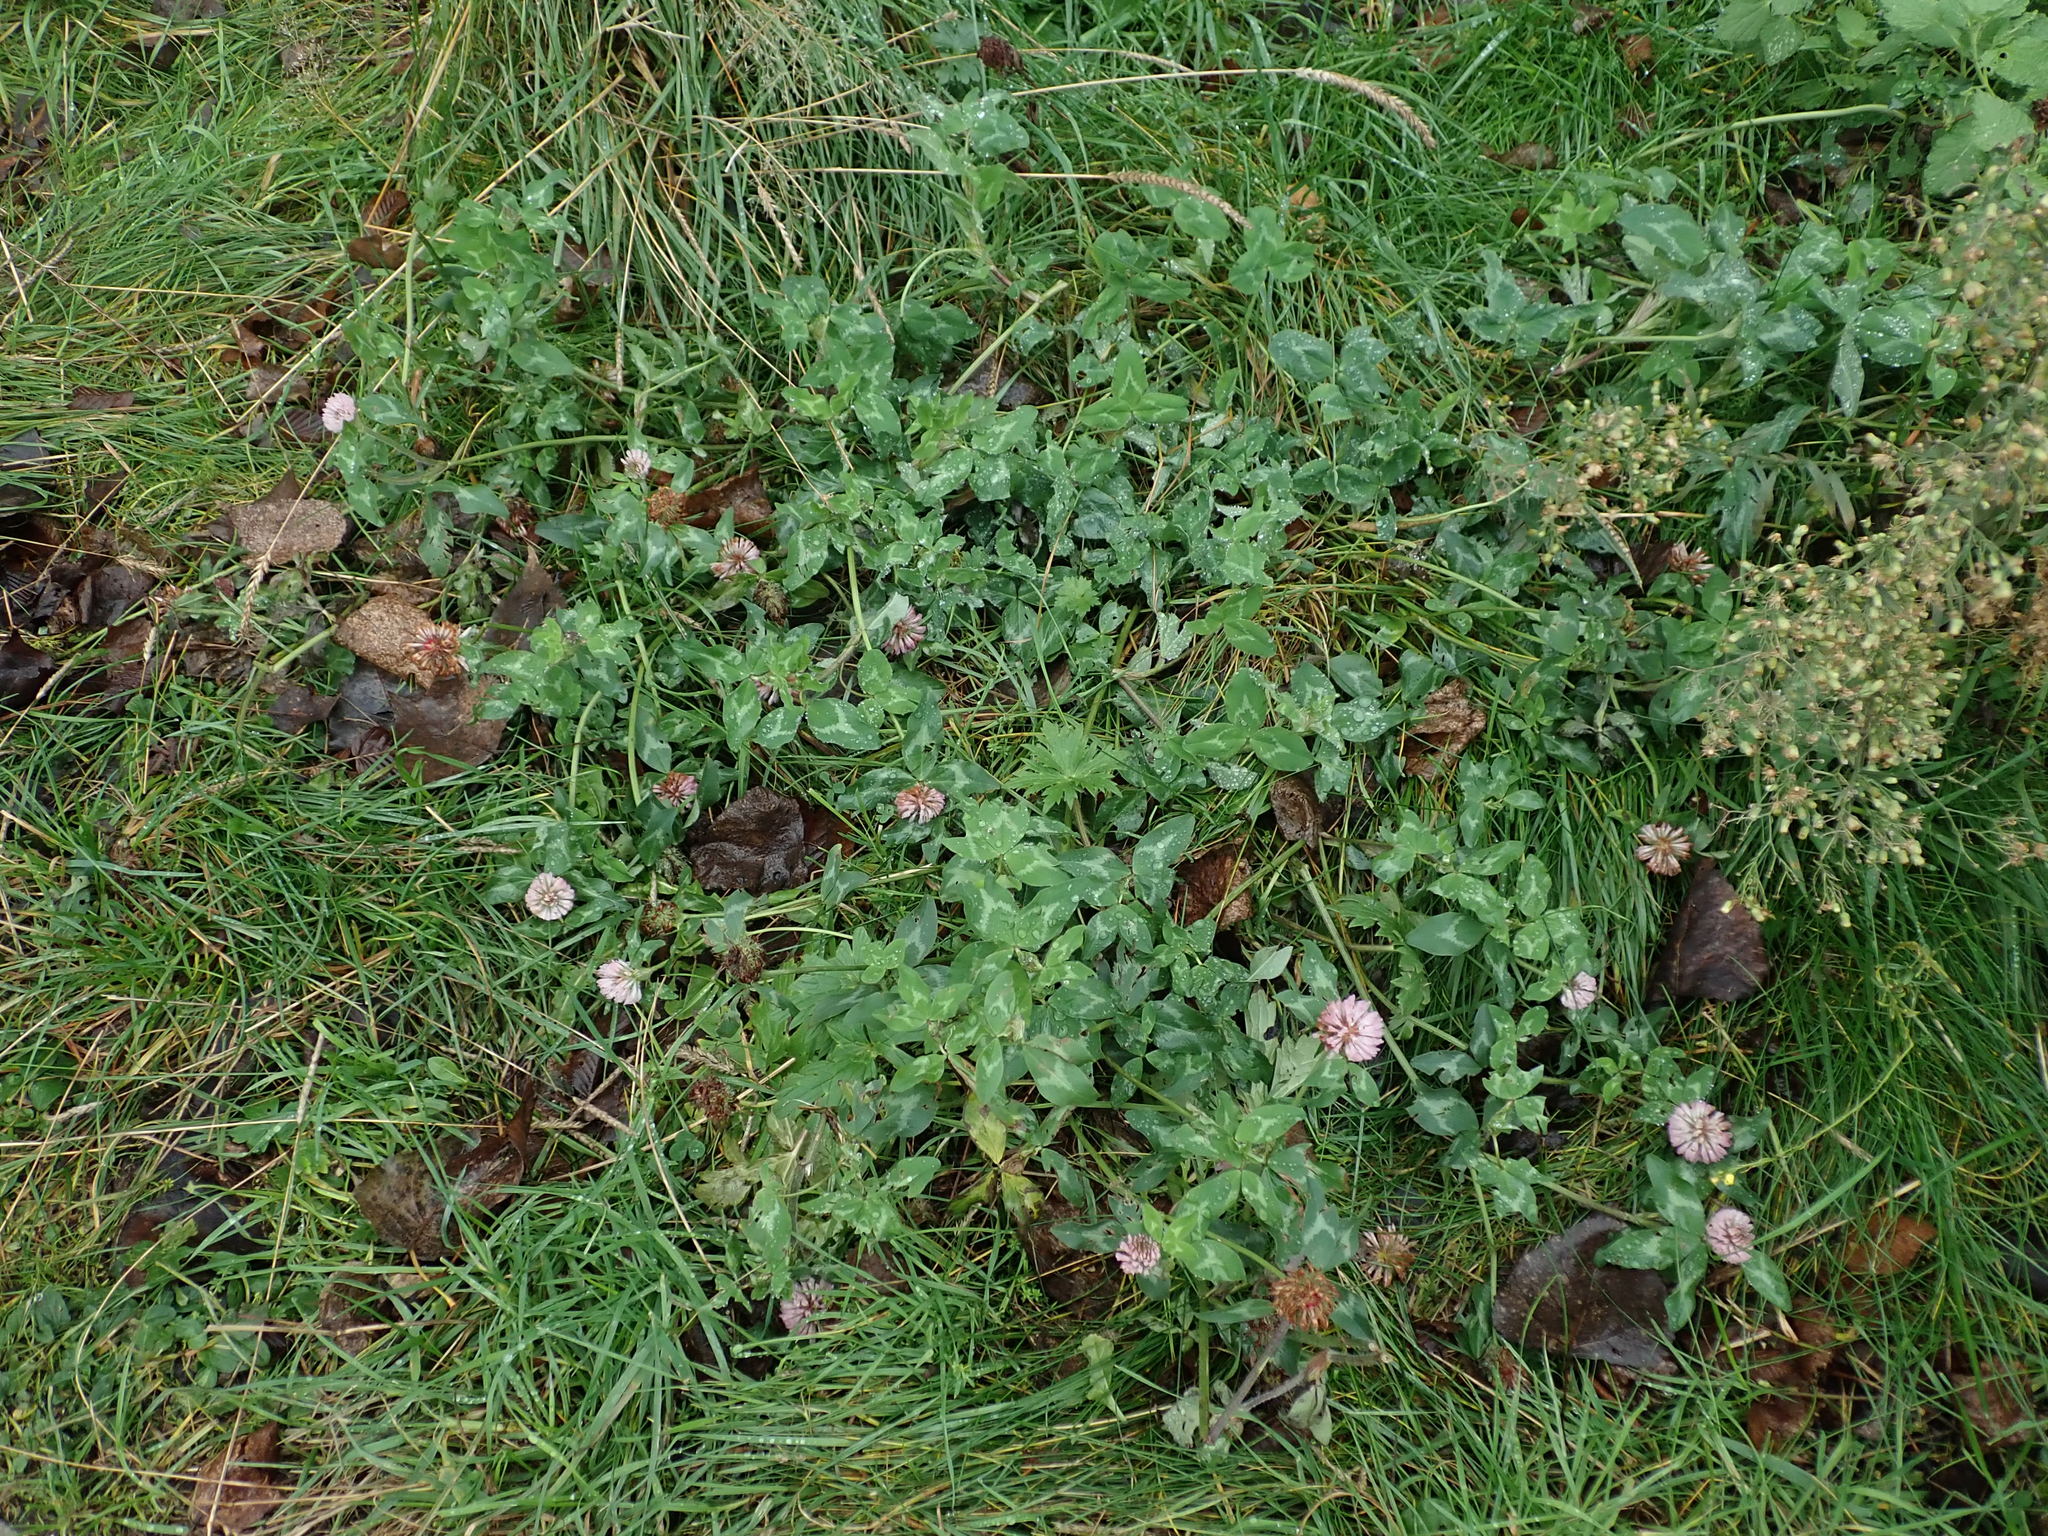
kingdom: Plantae
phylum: Tracheophyta
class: Magnoliopsida
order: Fabales
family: Fabaceae
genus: Trifolium
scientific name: Trifolium pratense
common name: Red clover
